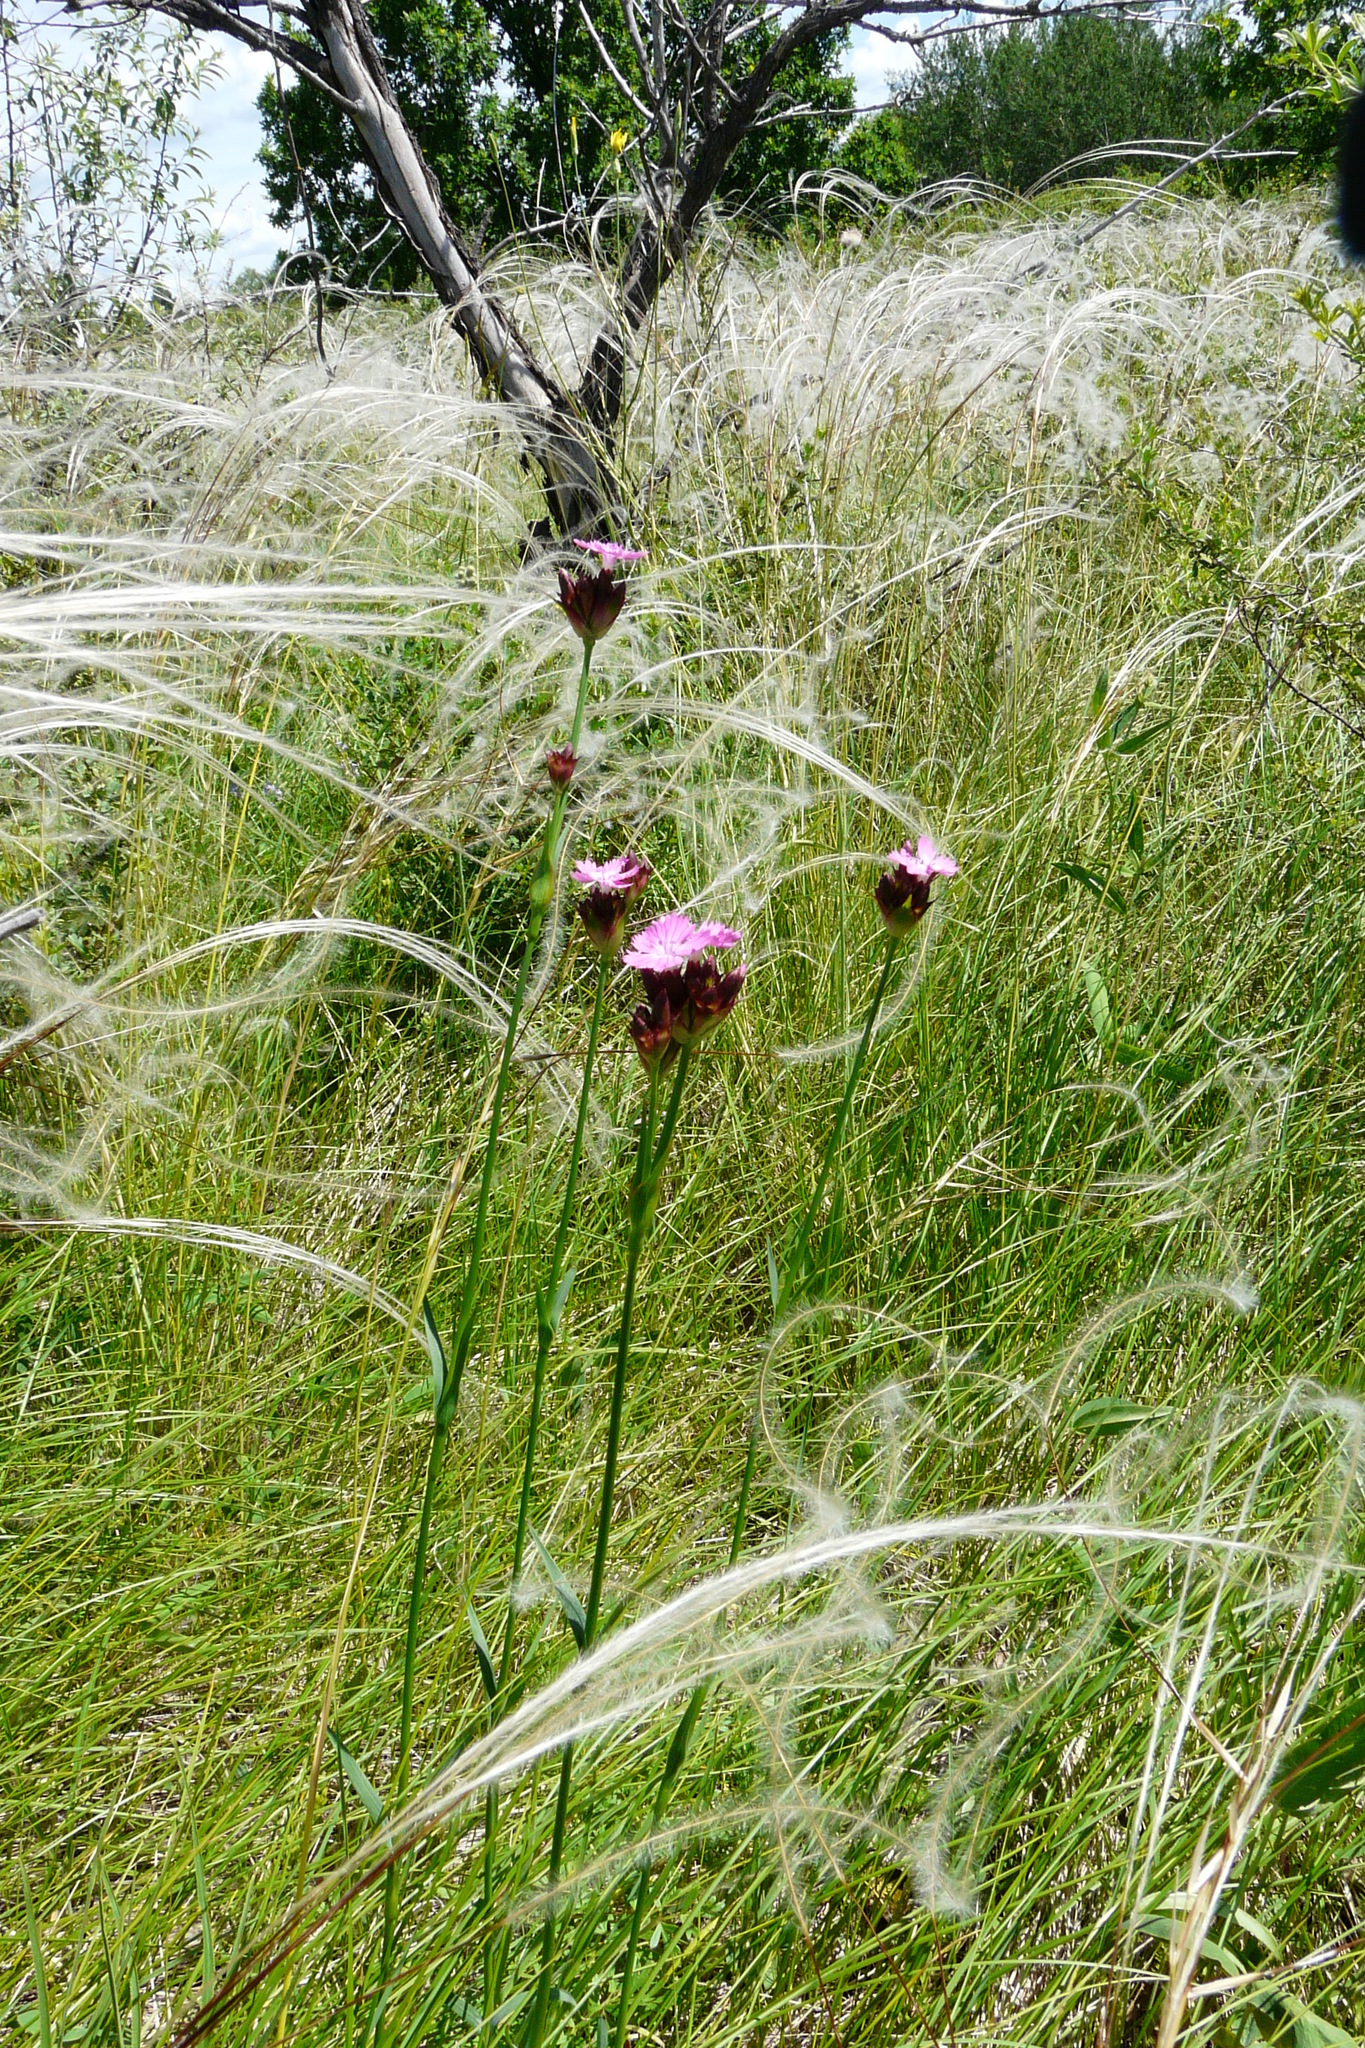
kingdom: Plantae
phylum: Tracheophyta
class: Magnoliopsida
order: Caryophyllales
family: Caryophyllaceae
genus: Dianthus
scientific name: Dianthus capitatus
